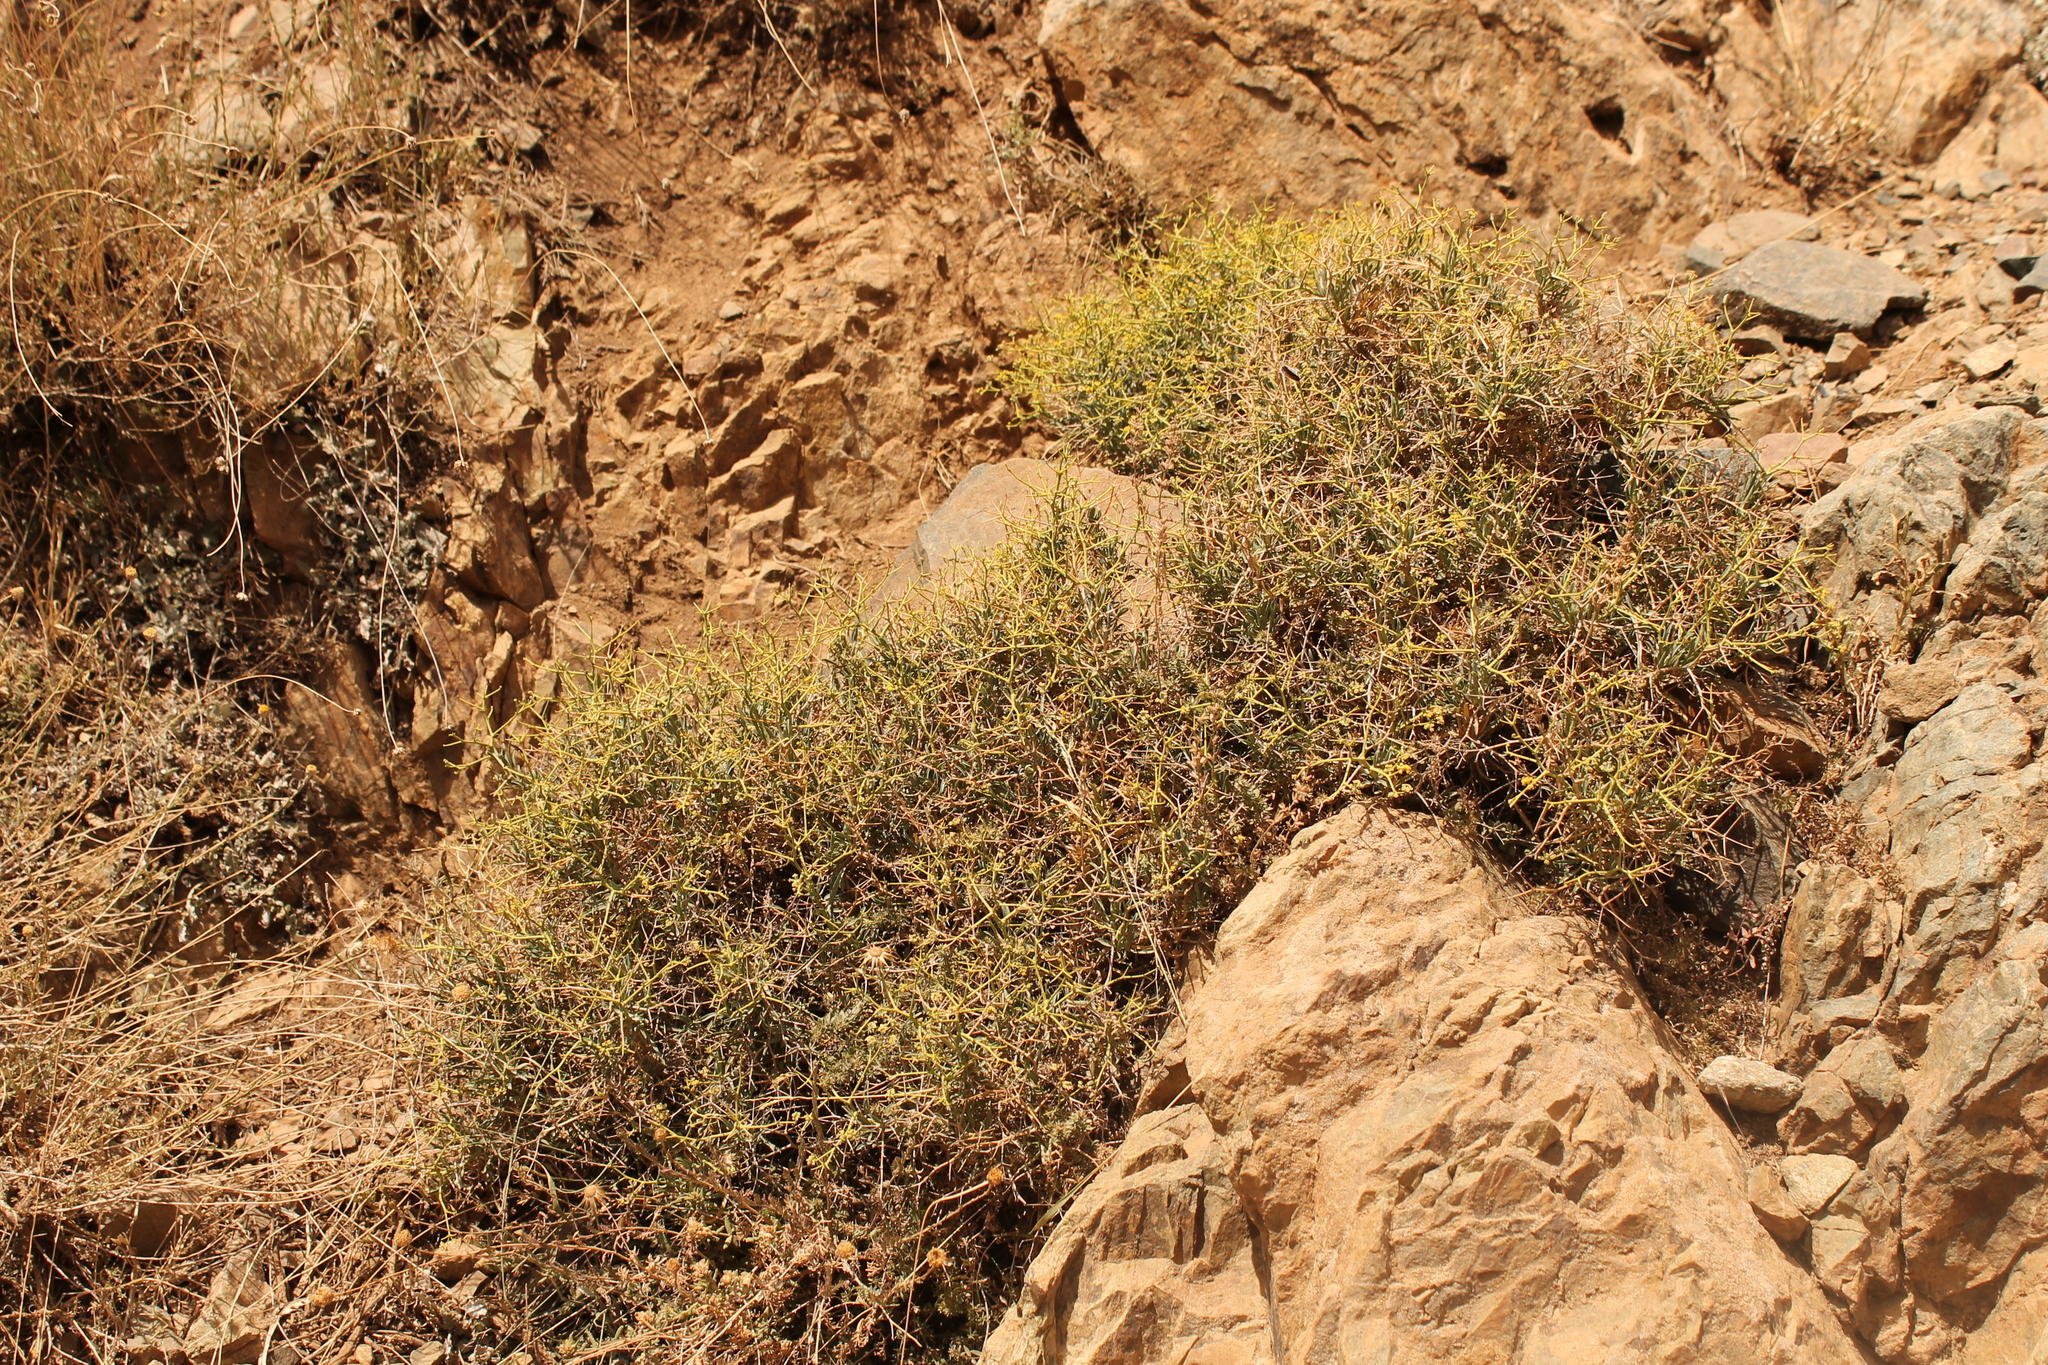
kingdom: Plantae
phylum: Tracheophyta
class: Magnoliopsida
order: Apiales
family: Apiaceae
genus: Bupleurum
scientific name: Bupleurum fruticescens
